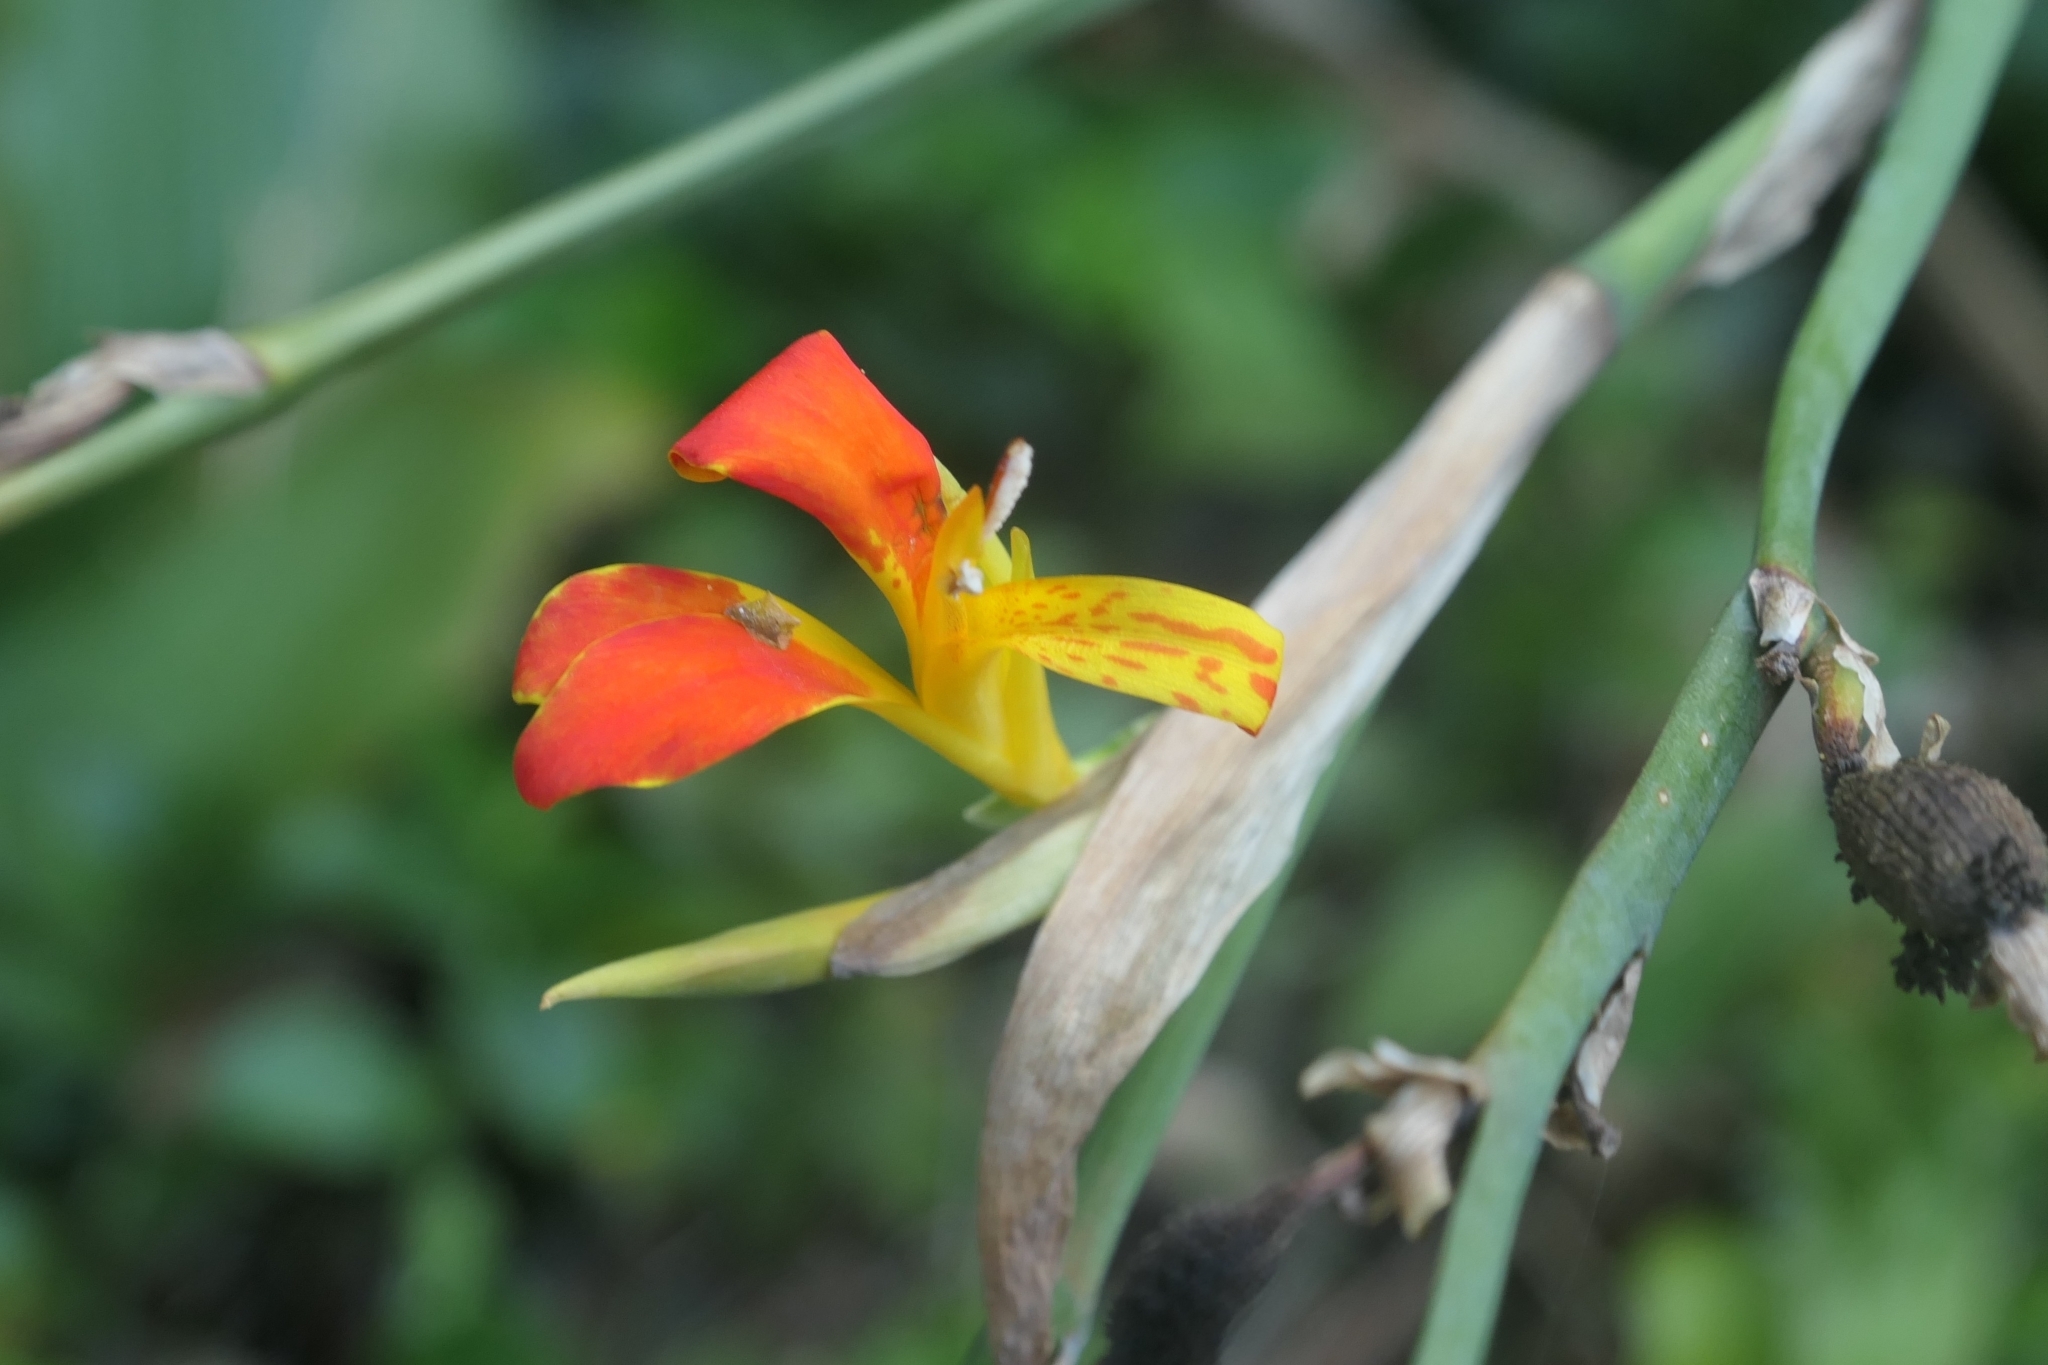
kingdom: Plantae
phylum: Tracheophyta
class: Liliopsida
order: Zingiberales
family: Cannaceae
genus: Canna
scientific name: Canna indica
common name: Indian shot
